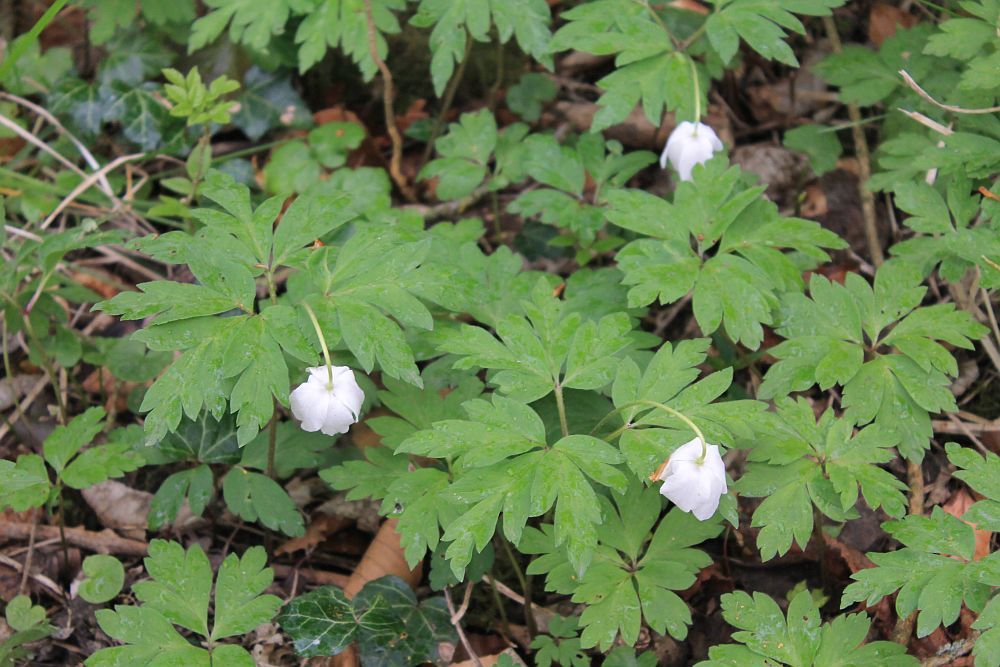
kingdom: Plantae
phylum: Tracheophyta
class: Magnoliopsida
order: Ranunculales
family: Ranunculaceae
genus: Anemone
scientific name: Anemone nemorosa
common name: Wood anemone
